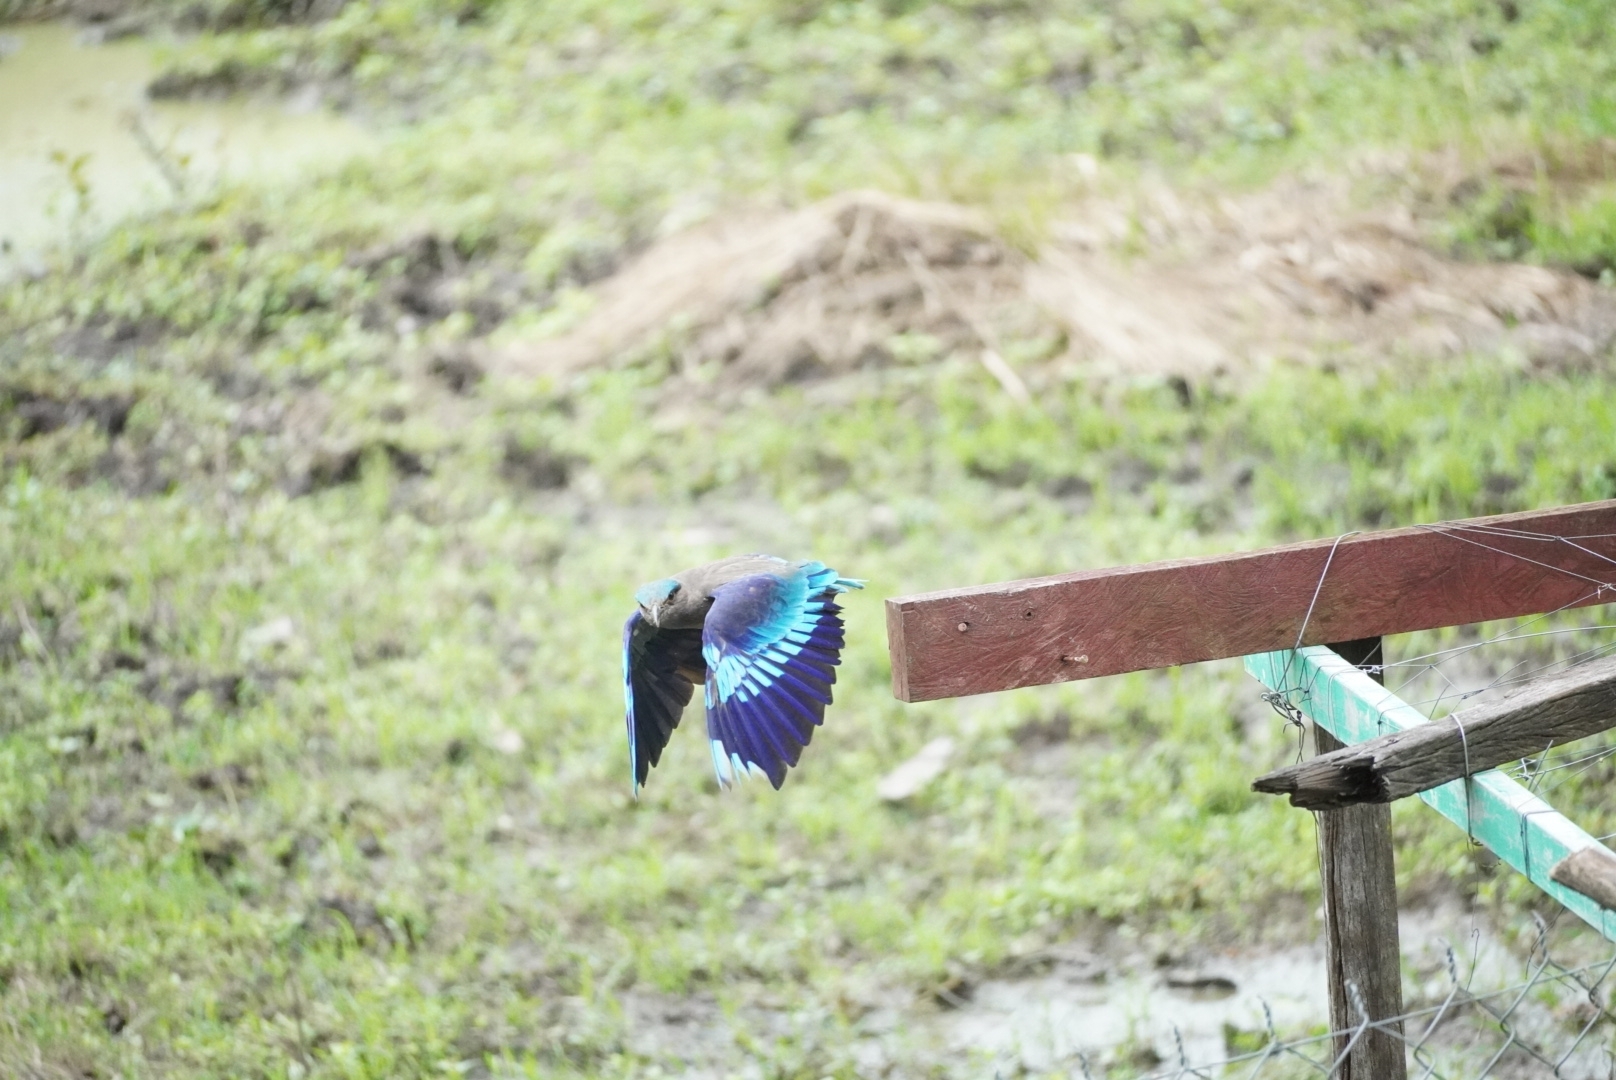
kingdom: Animalia
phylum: Chordata
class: Aves
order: Coraciiformes
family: Coraciidae
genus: Coracias
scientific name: Coracias affinis
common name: Indochinese roller
